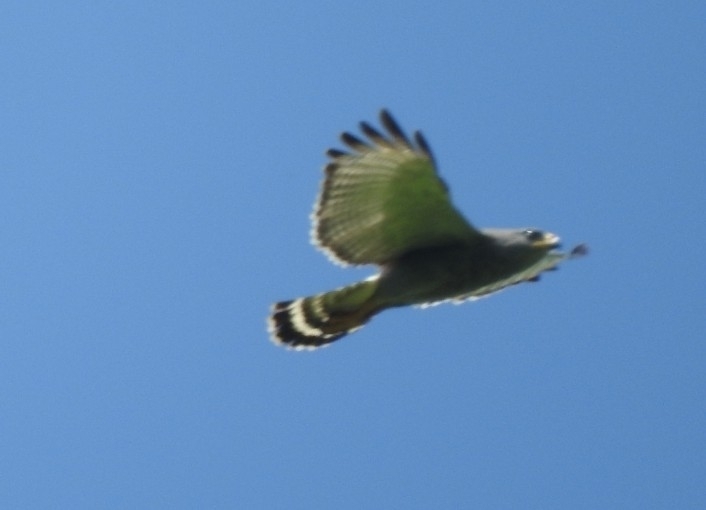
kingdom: Animalia
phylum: Chordata
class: Aves
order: Accipitriformes
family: Accipitridae
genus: Buteo
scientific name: Buteo nitidus
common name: Grey-lined hawk
